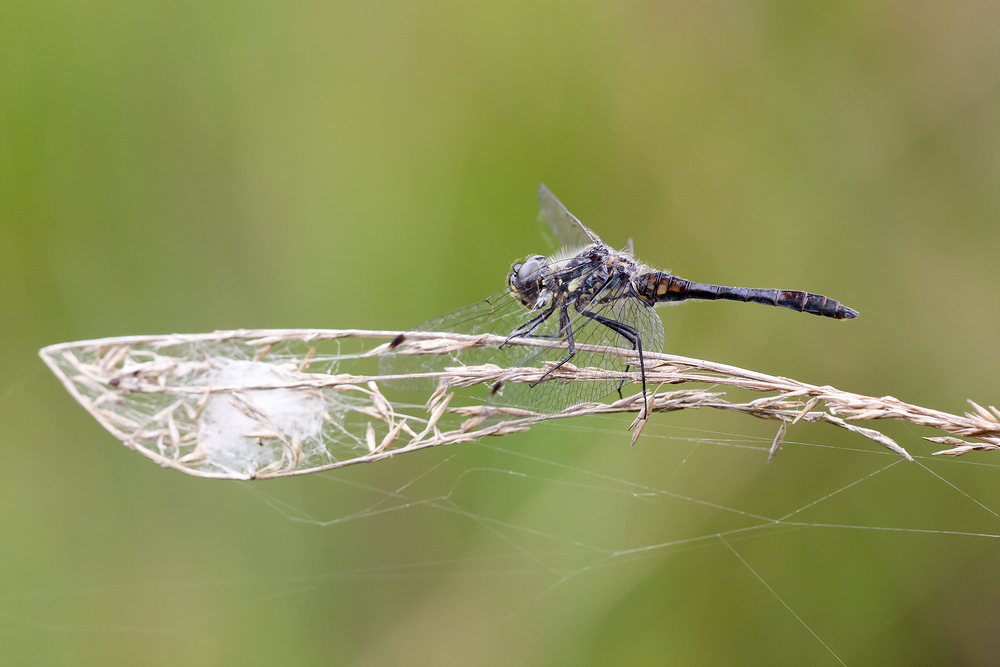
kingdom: Animalia
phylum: Arthropoda
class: Insecta
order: Odonata
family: Libellulidae
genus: Sympetrum
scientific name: Sympetrum danae
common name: Black darter
